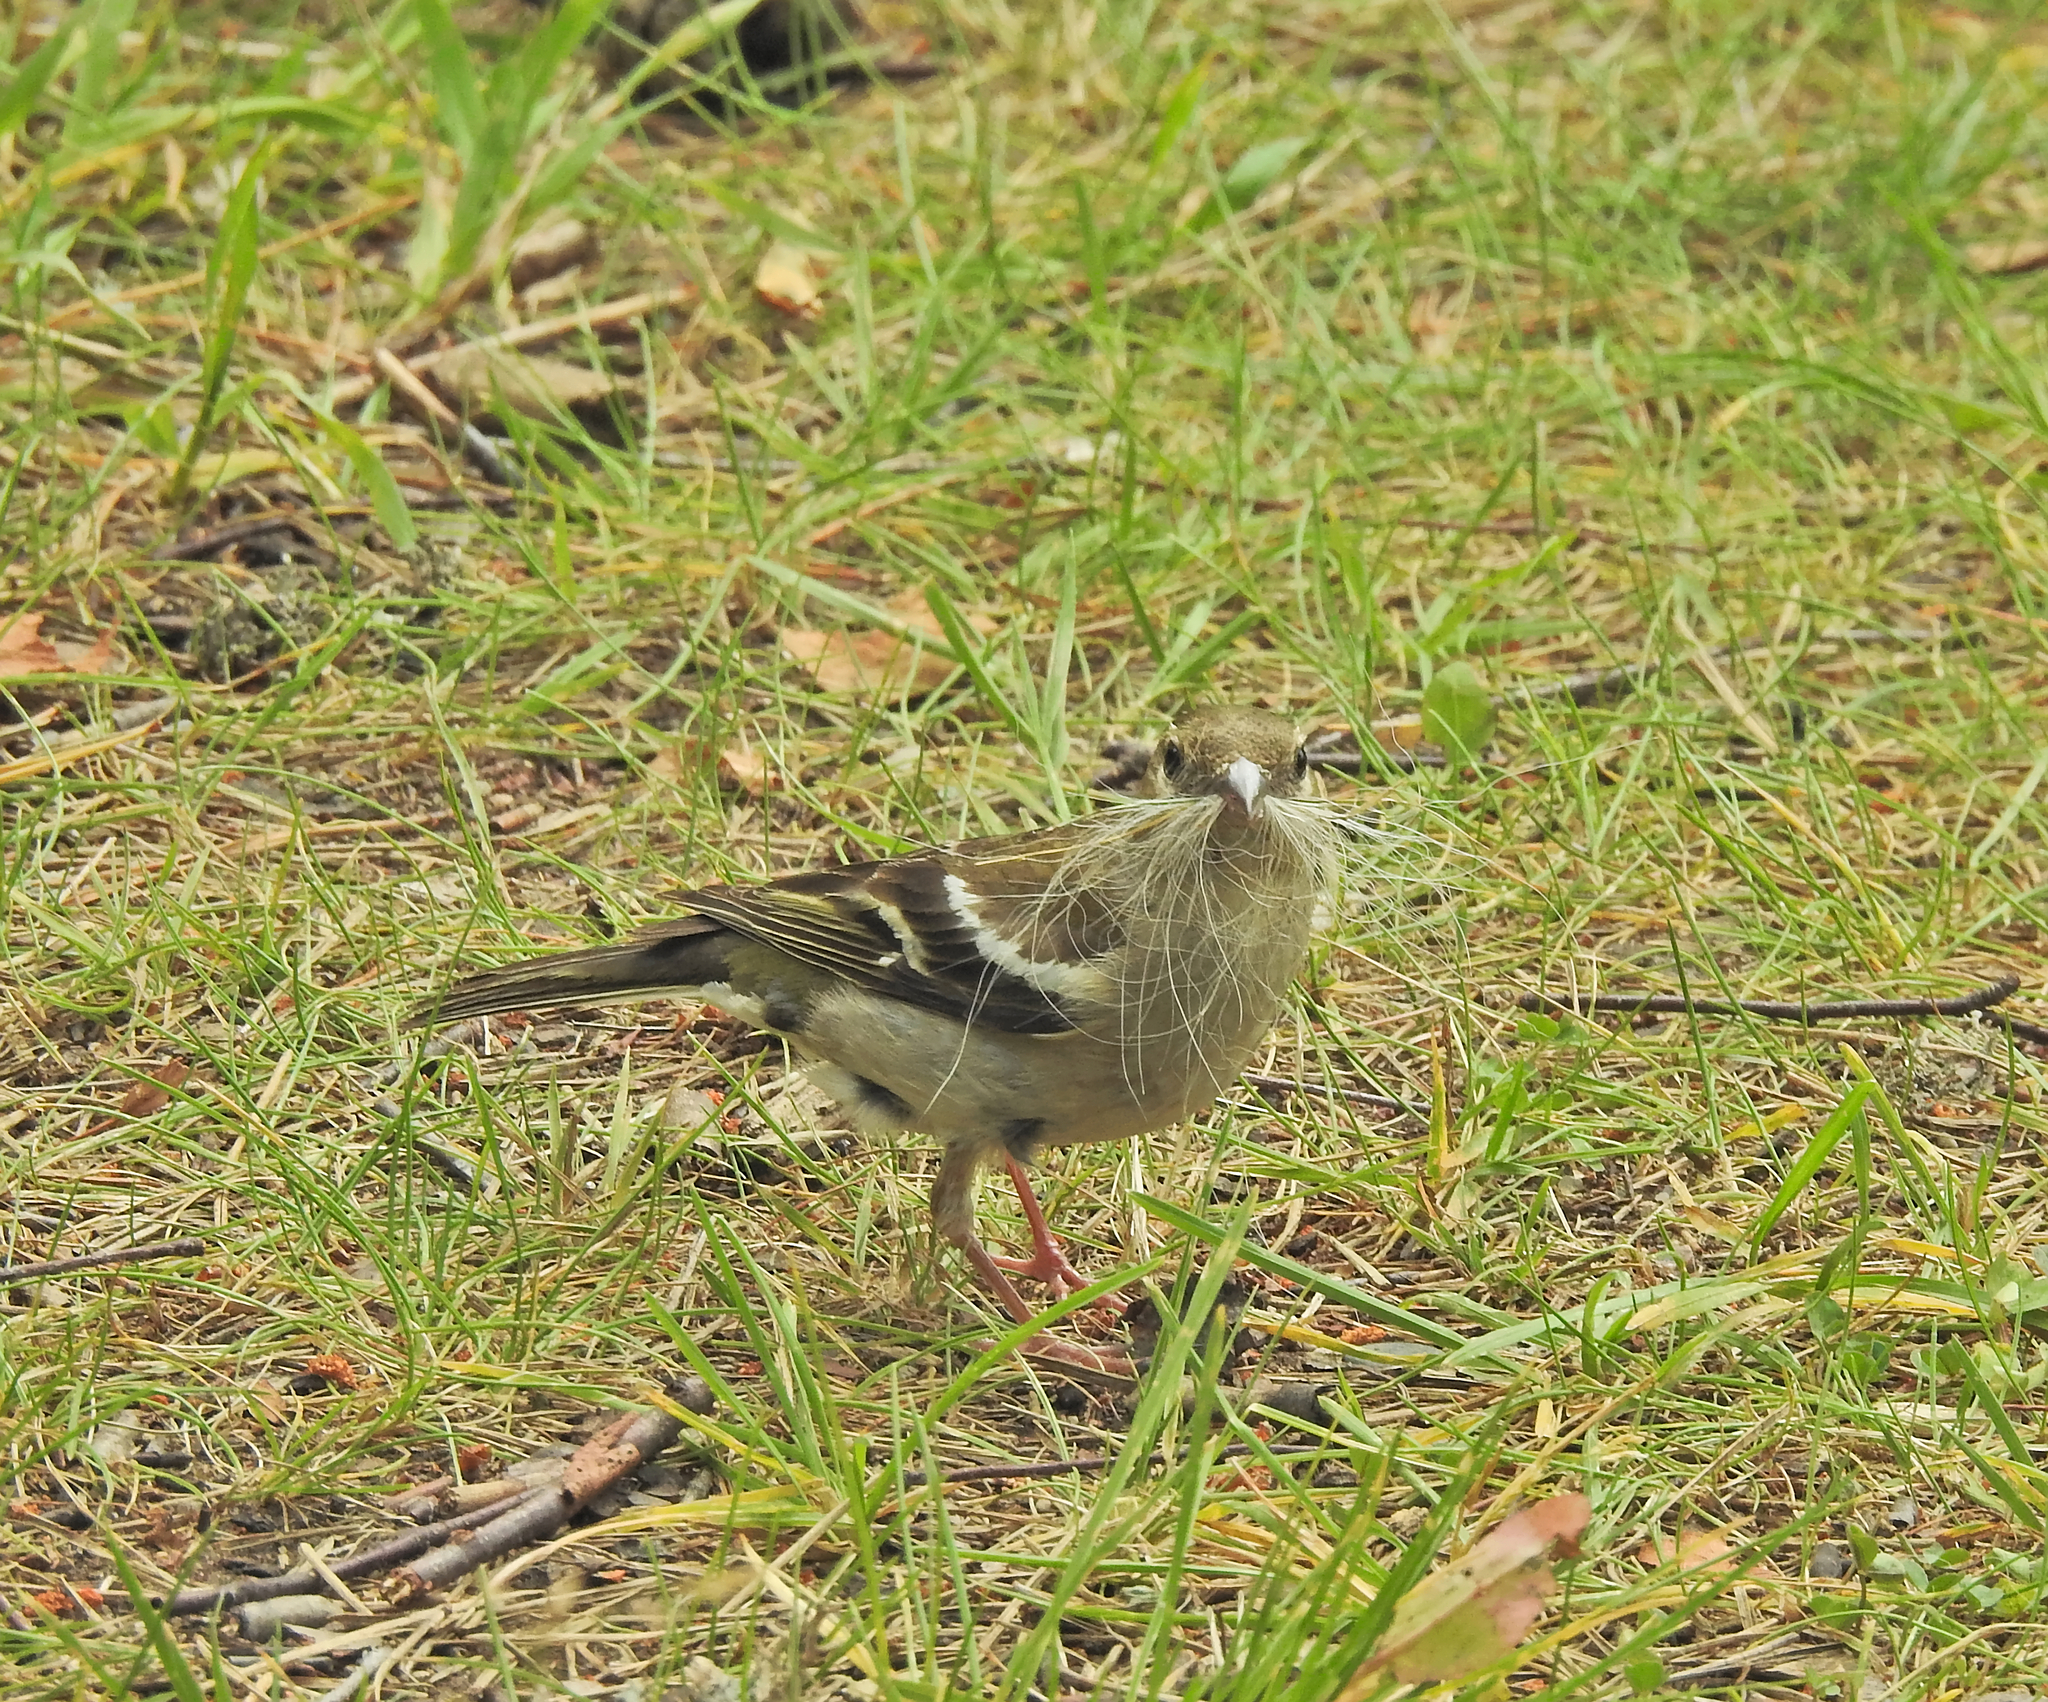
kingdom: Animalia
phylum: Chordata
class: Aves
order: Passeriformes
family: Fringillidae
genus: Fringilla
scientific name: Fringilla coelebs
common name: Common chaffinch
